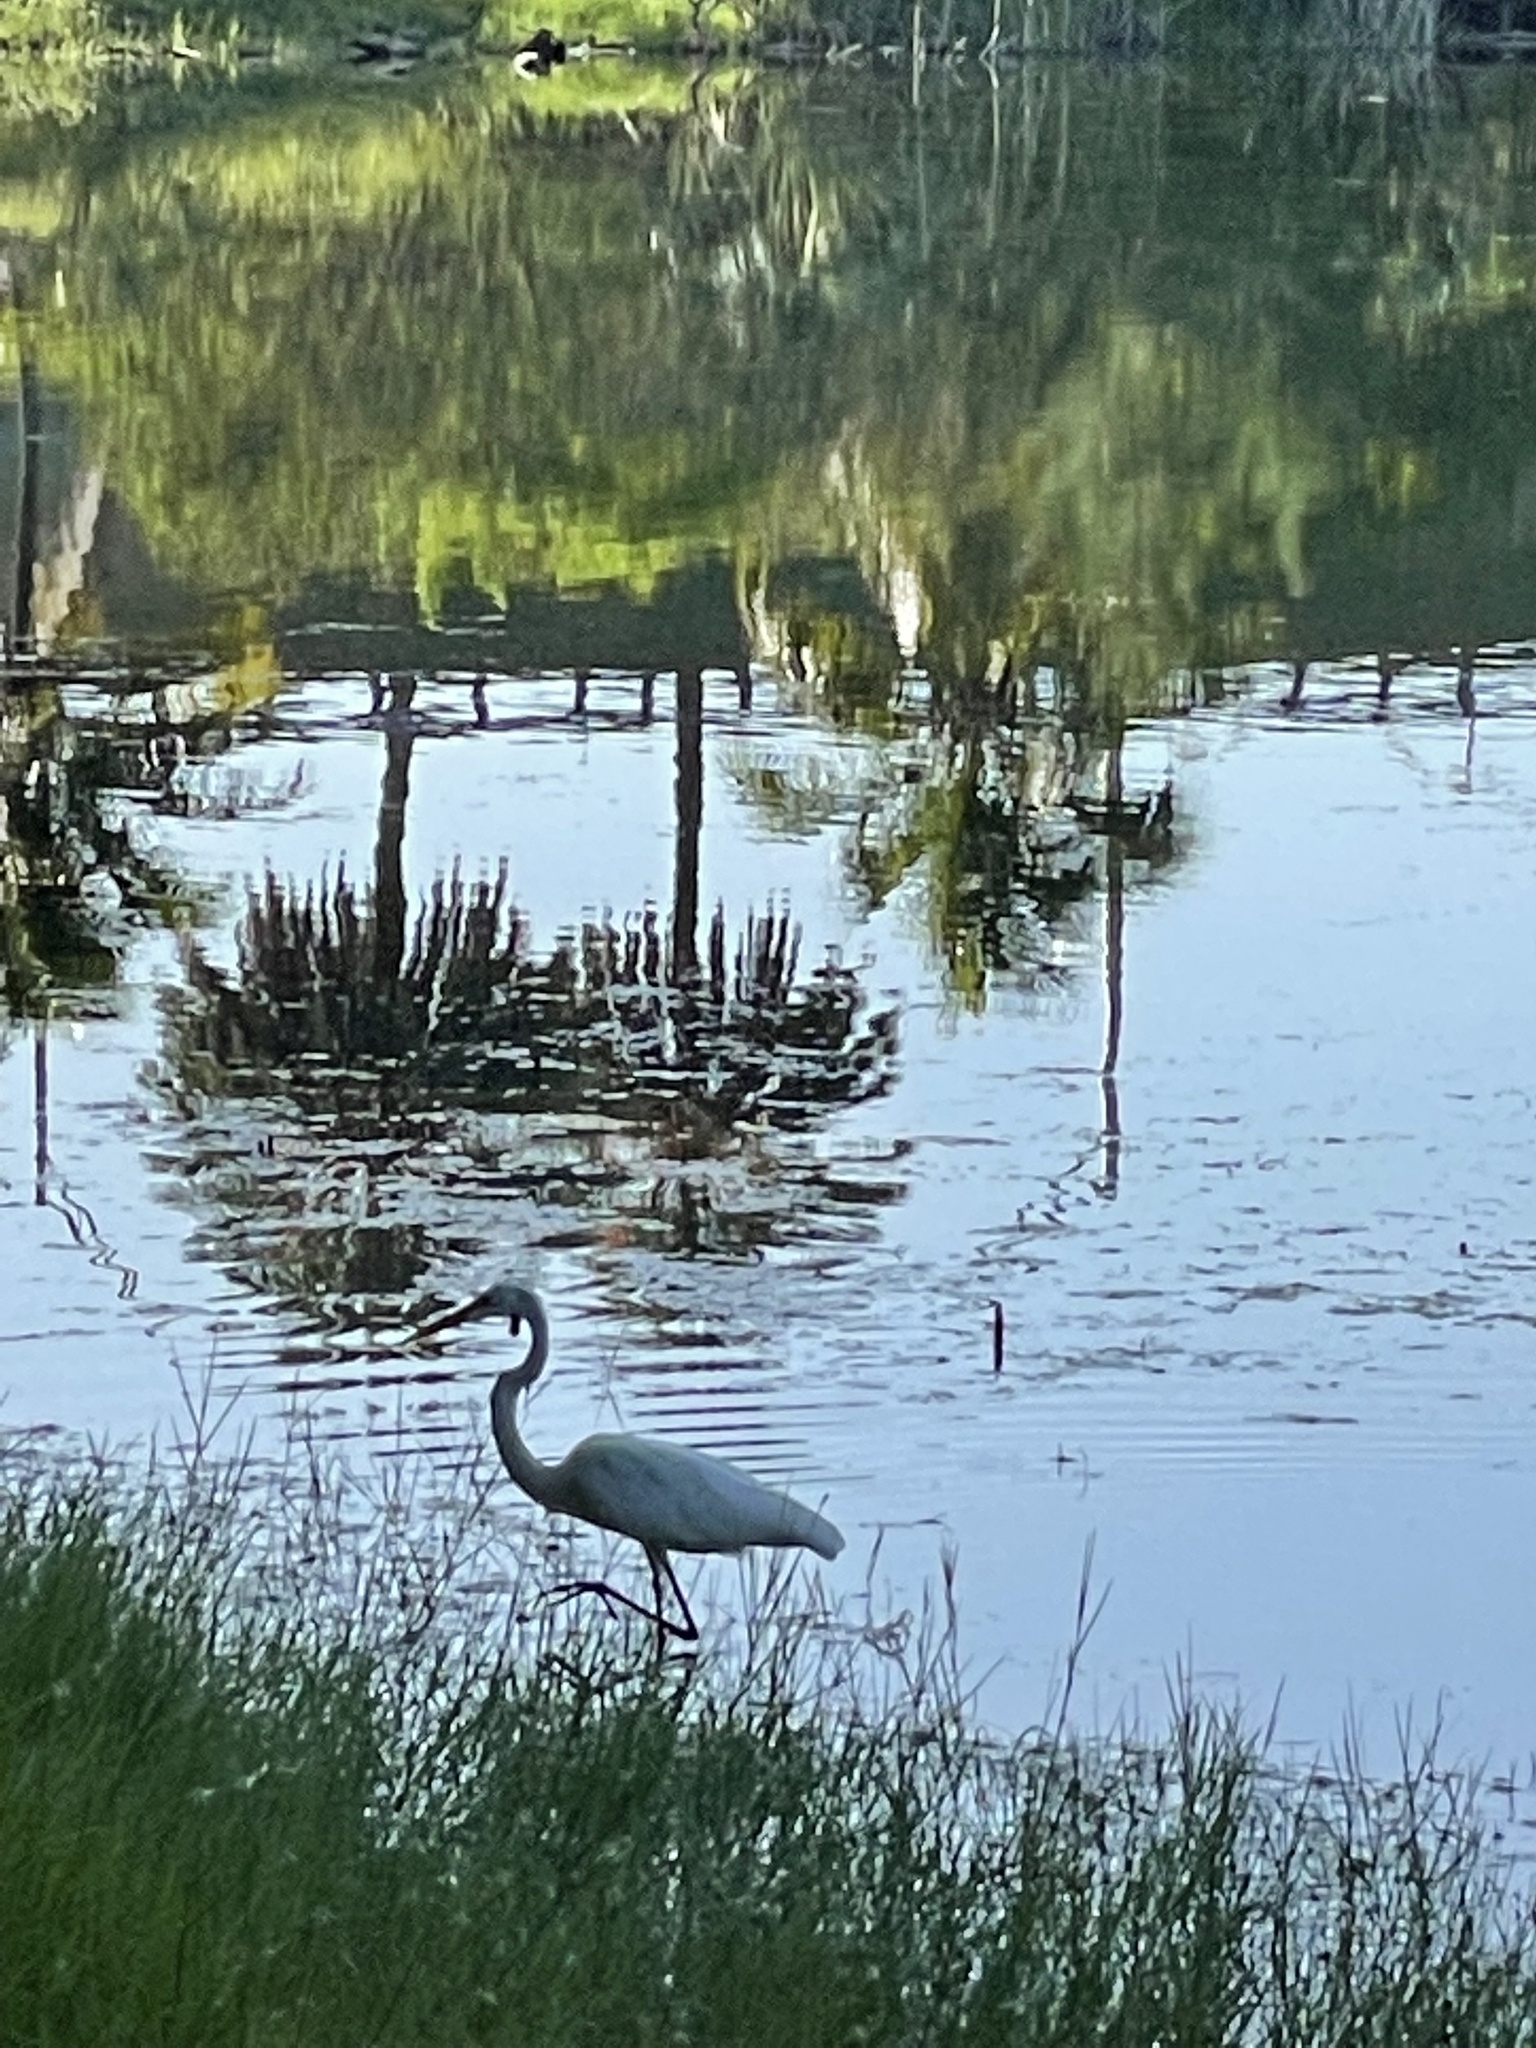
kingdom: Animalia
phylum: Chordata
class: Aves
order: Pelecaniformes
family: Ardeidae
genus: Ardea
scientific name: Ardea alba
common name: Great egret
